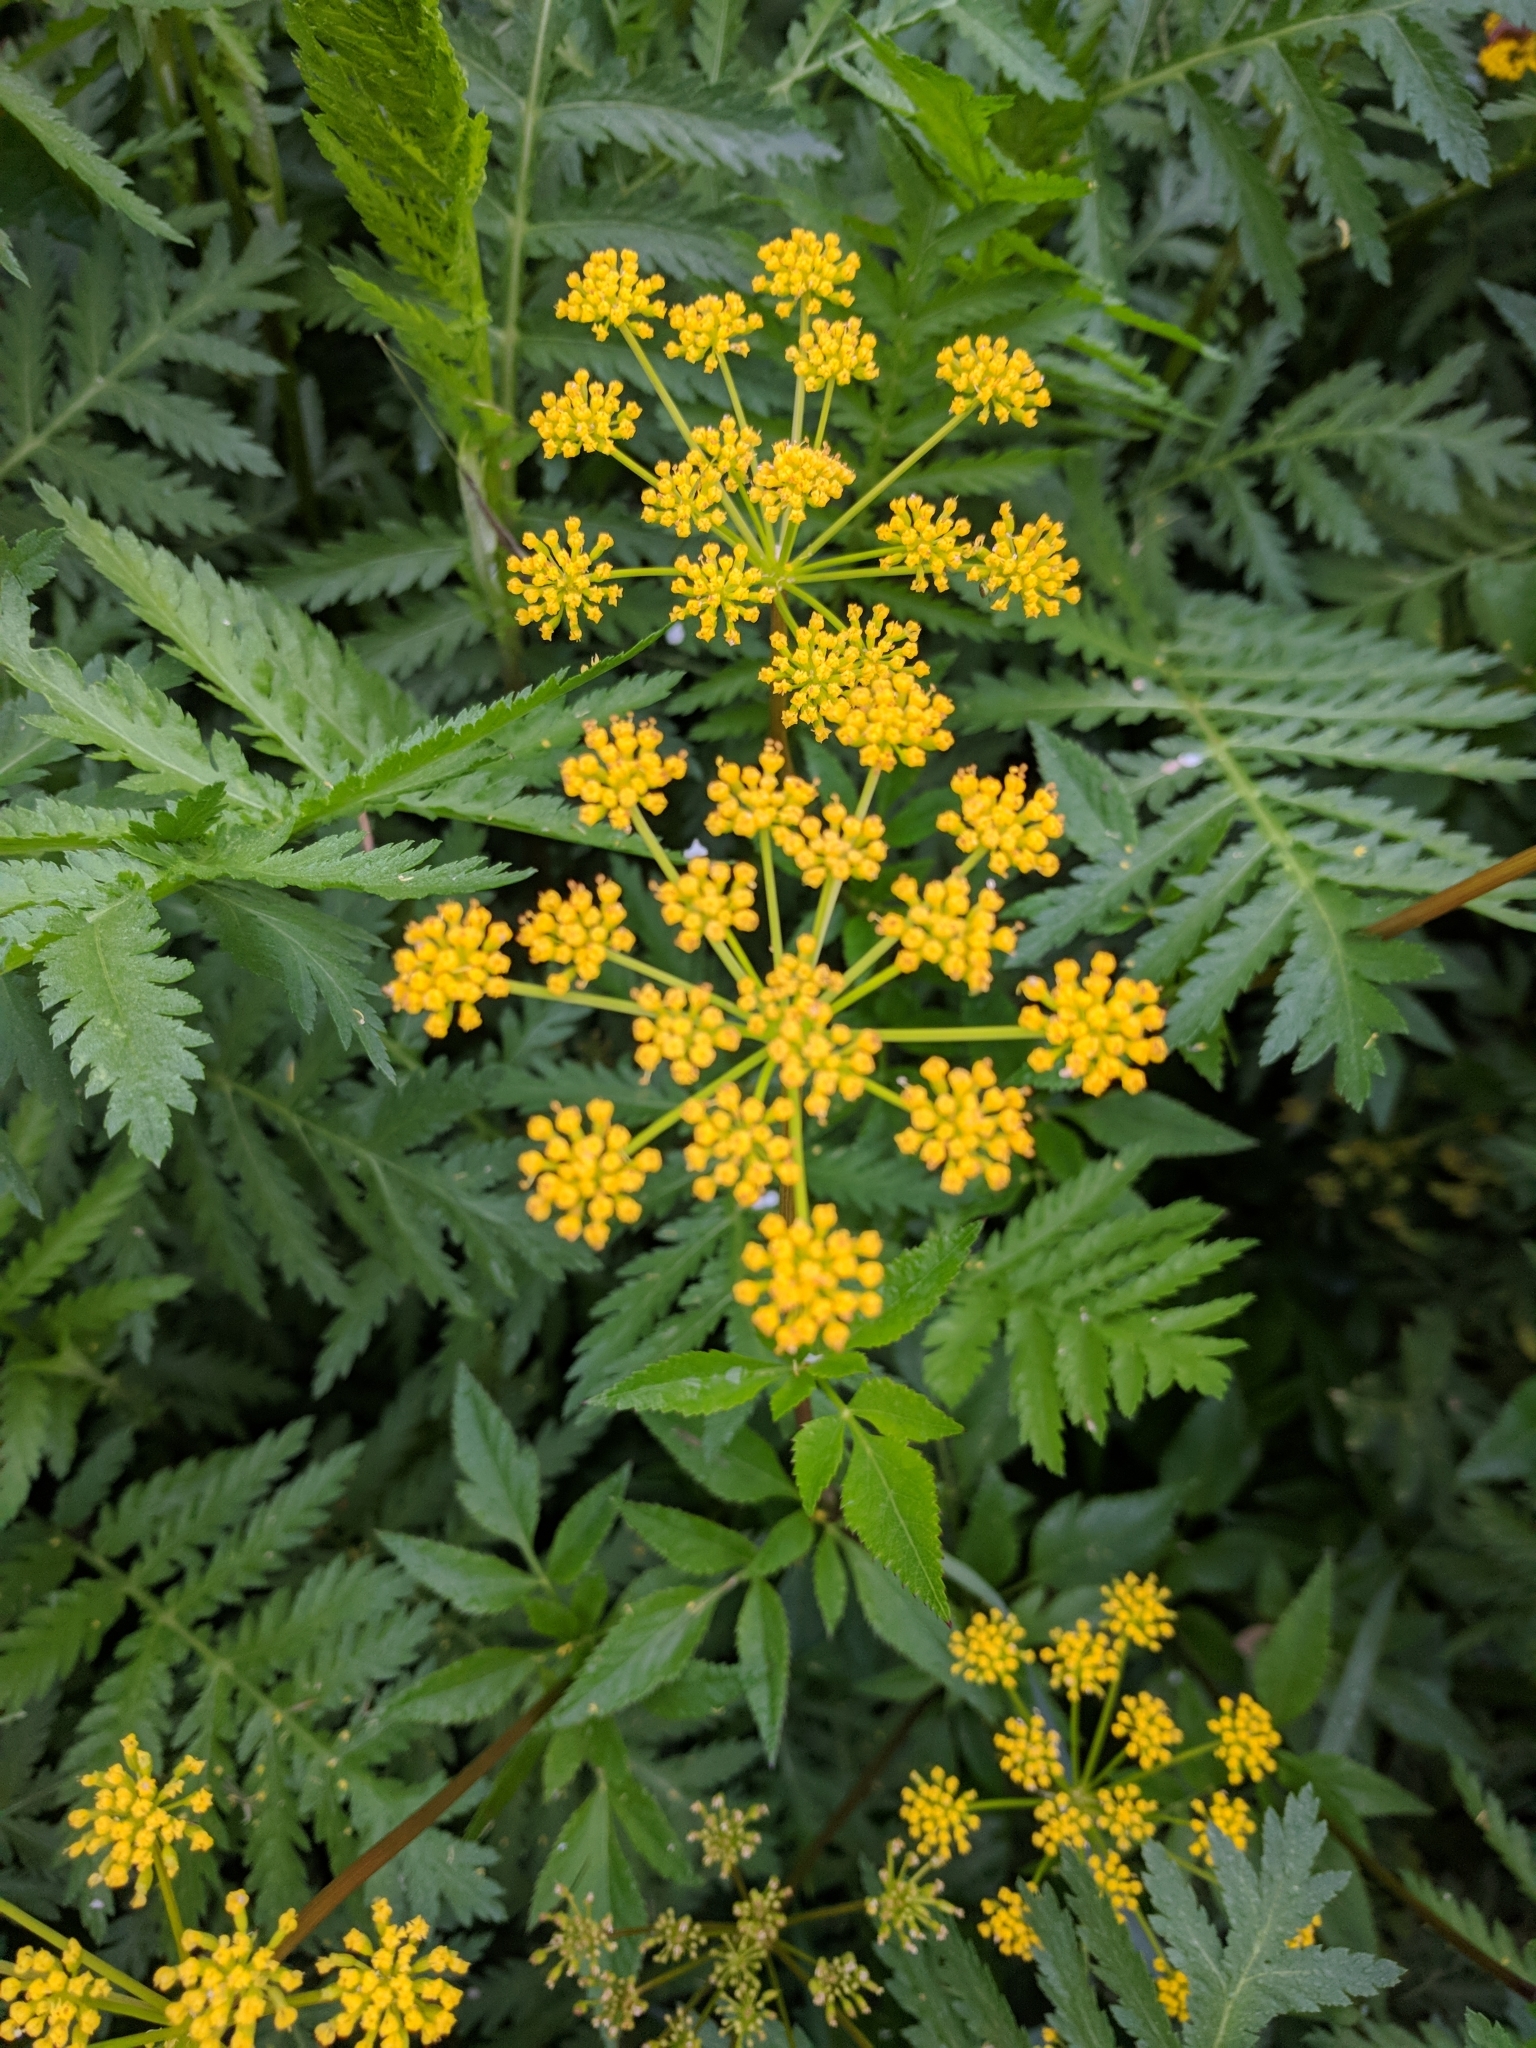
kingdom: Plantae
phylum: Tracheophyta
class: Magnoliopsida
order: Apiales
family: Apiaceae
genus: Zizia
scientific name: Zizia aurea
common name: Golden alexanders
